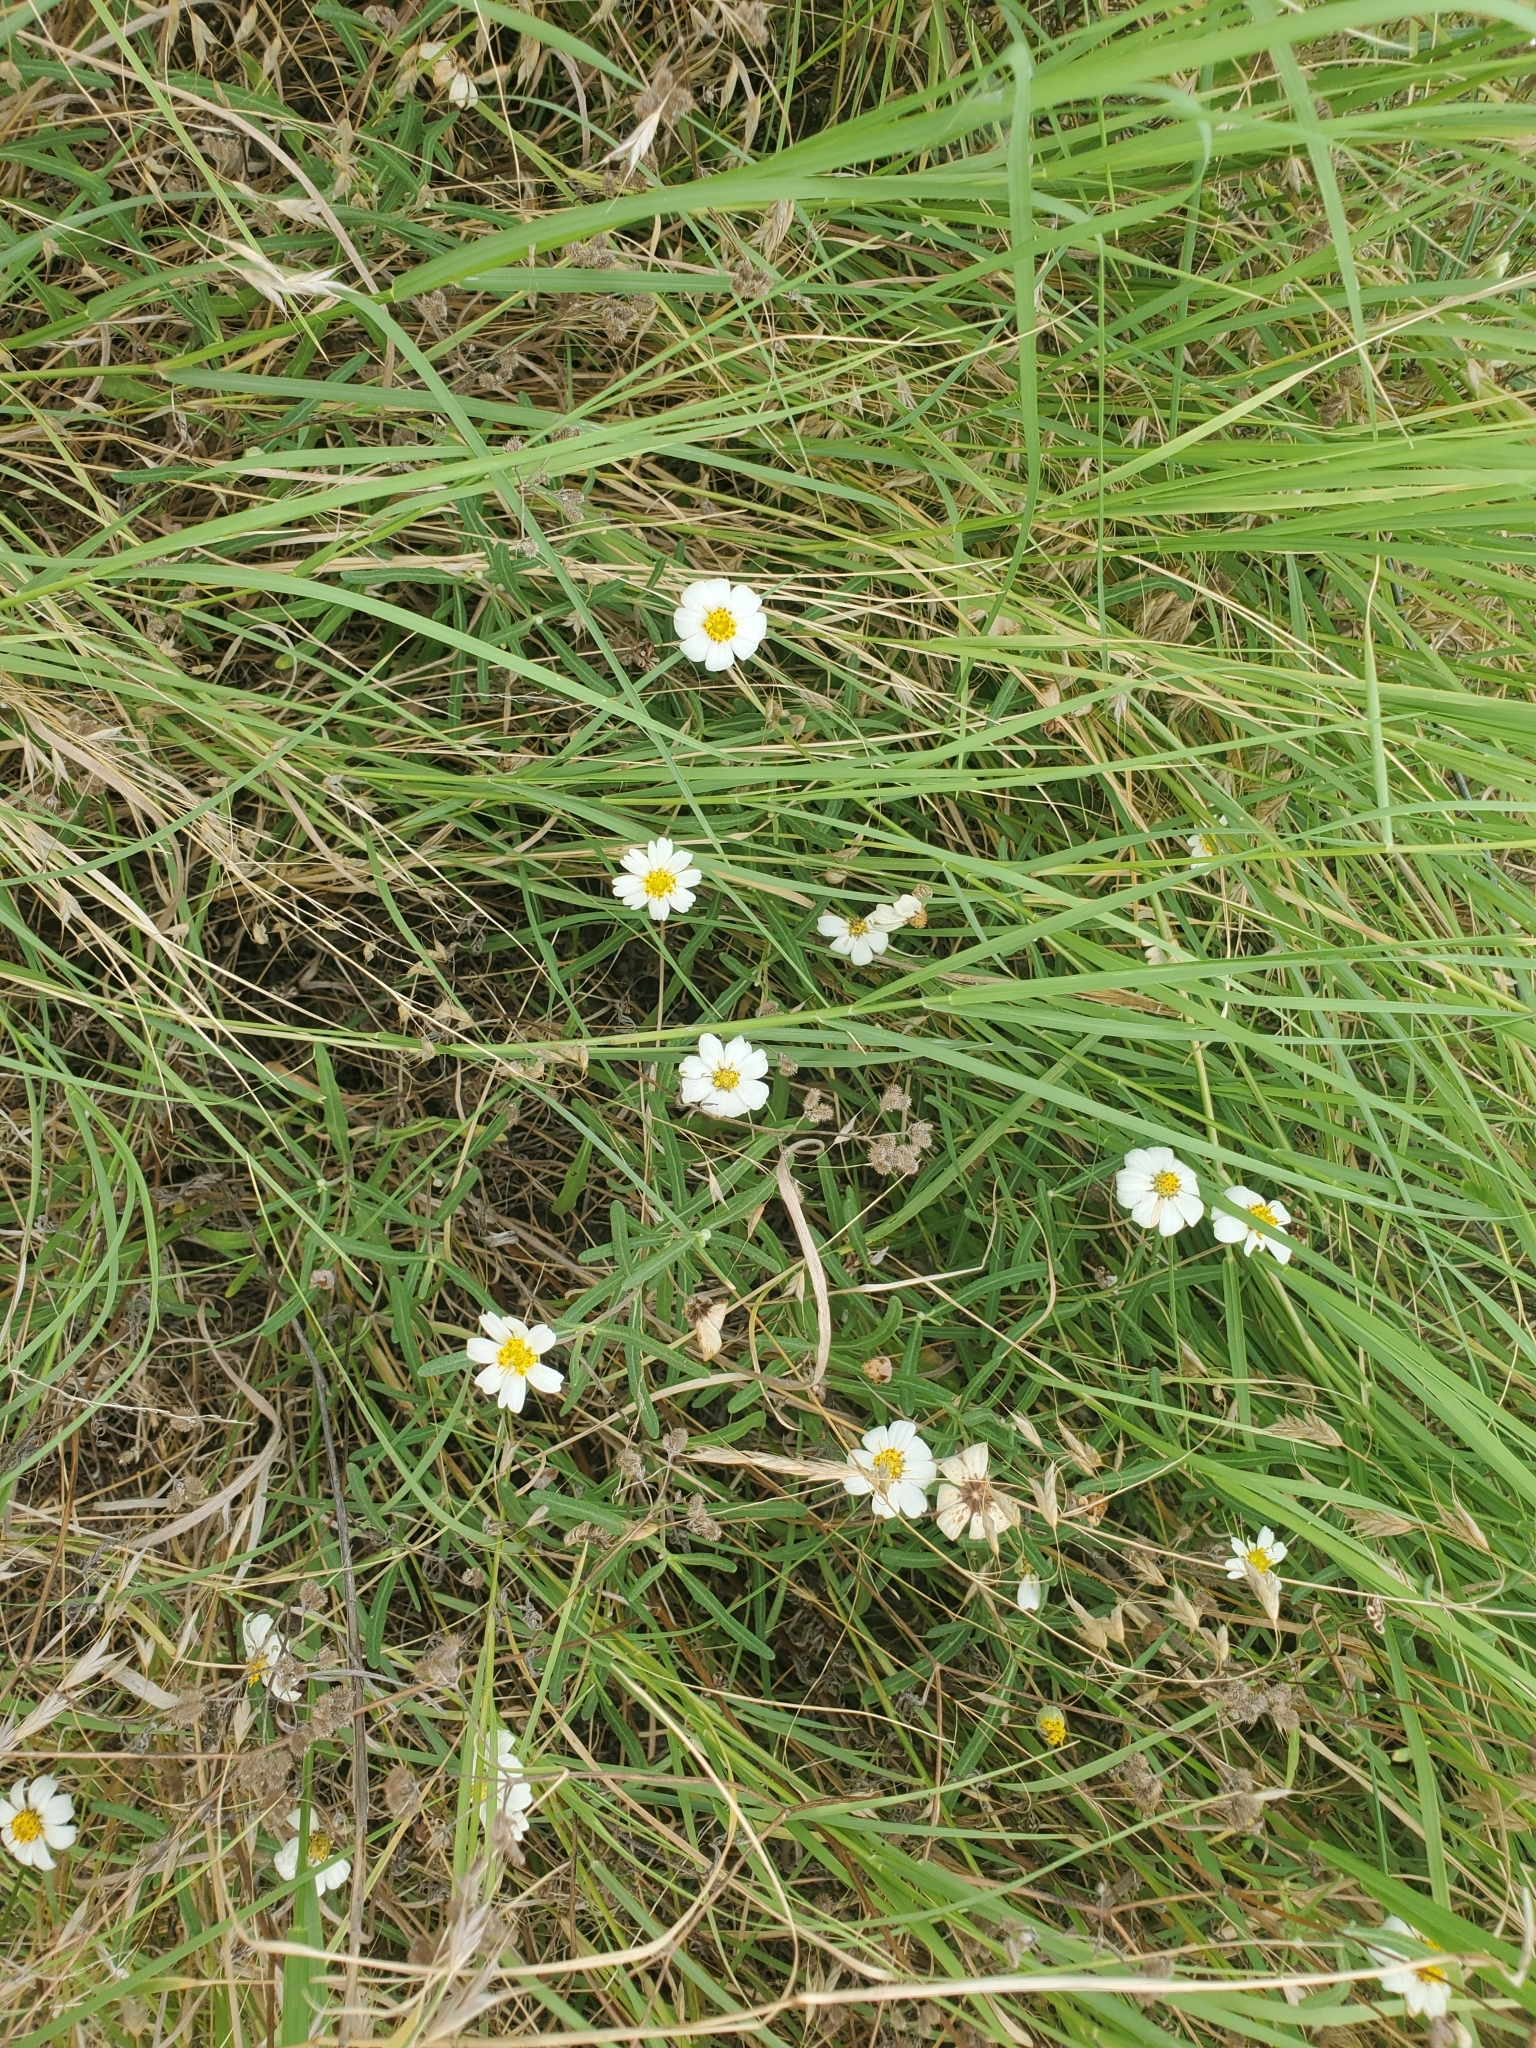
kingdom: Plantae
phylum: Tracheophyta
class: Magnoliopsida
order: Asterales
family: Asteraceae
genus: Melampodium
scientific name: Melampodium leucanthum
